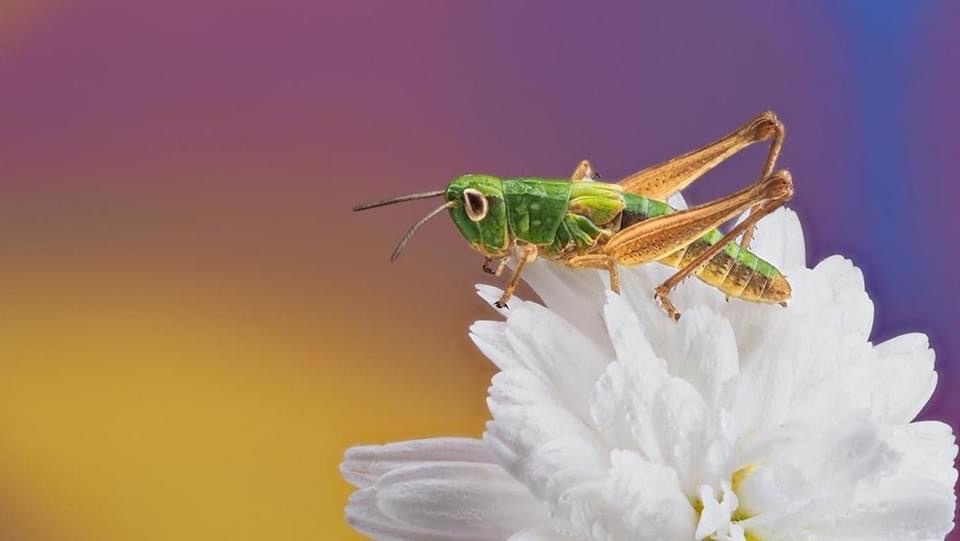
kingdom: Animalia
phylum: Arthropoda
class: Insecta
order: Orthoptera
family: Acrididae
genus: Pseudochorthippus
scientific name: Pseudochorthippus parallelus
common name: Meadow grasshopper
